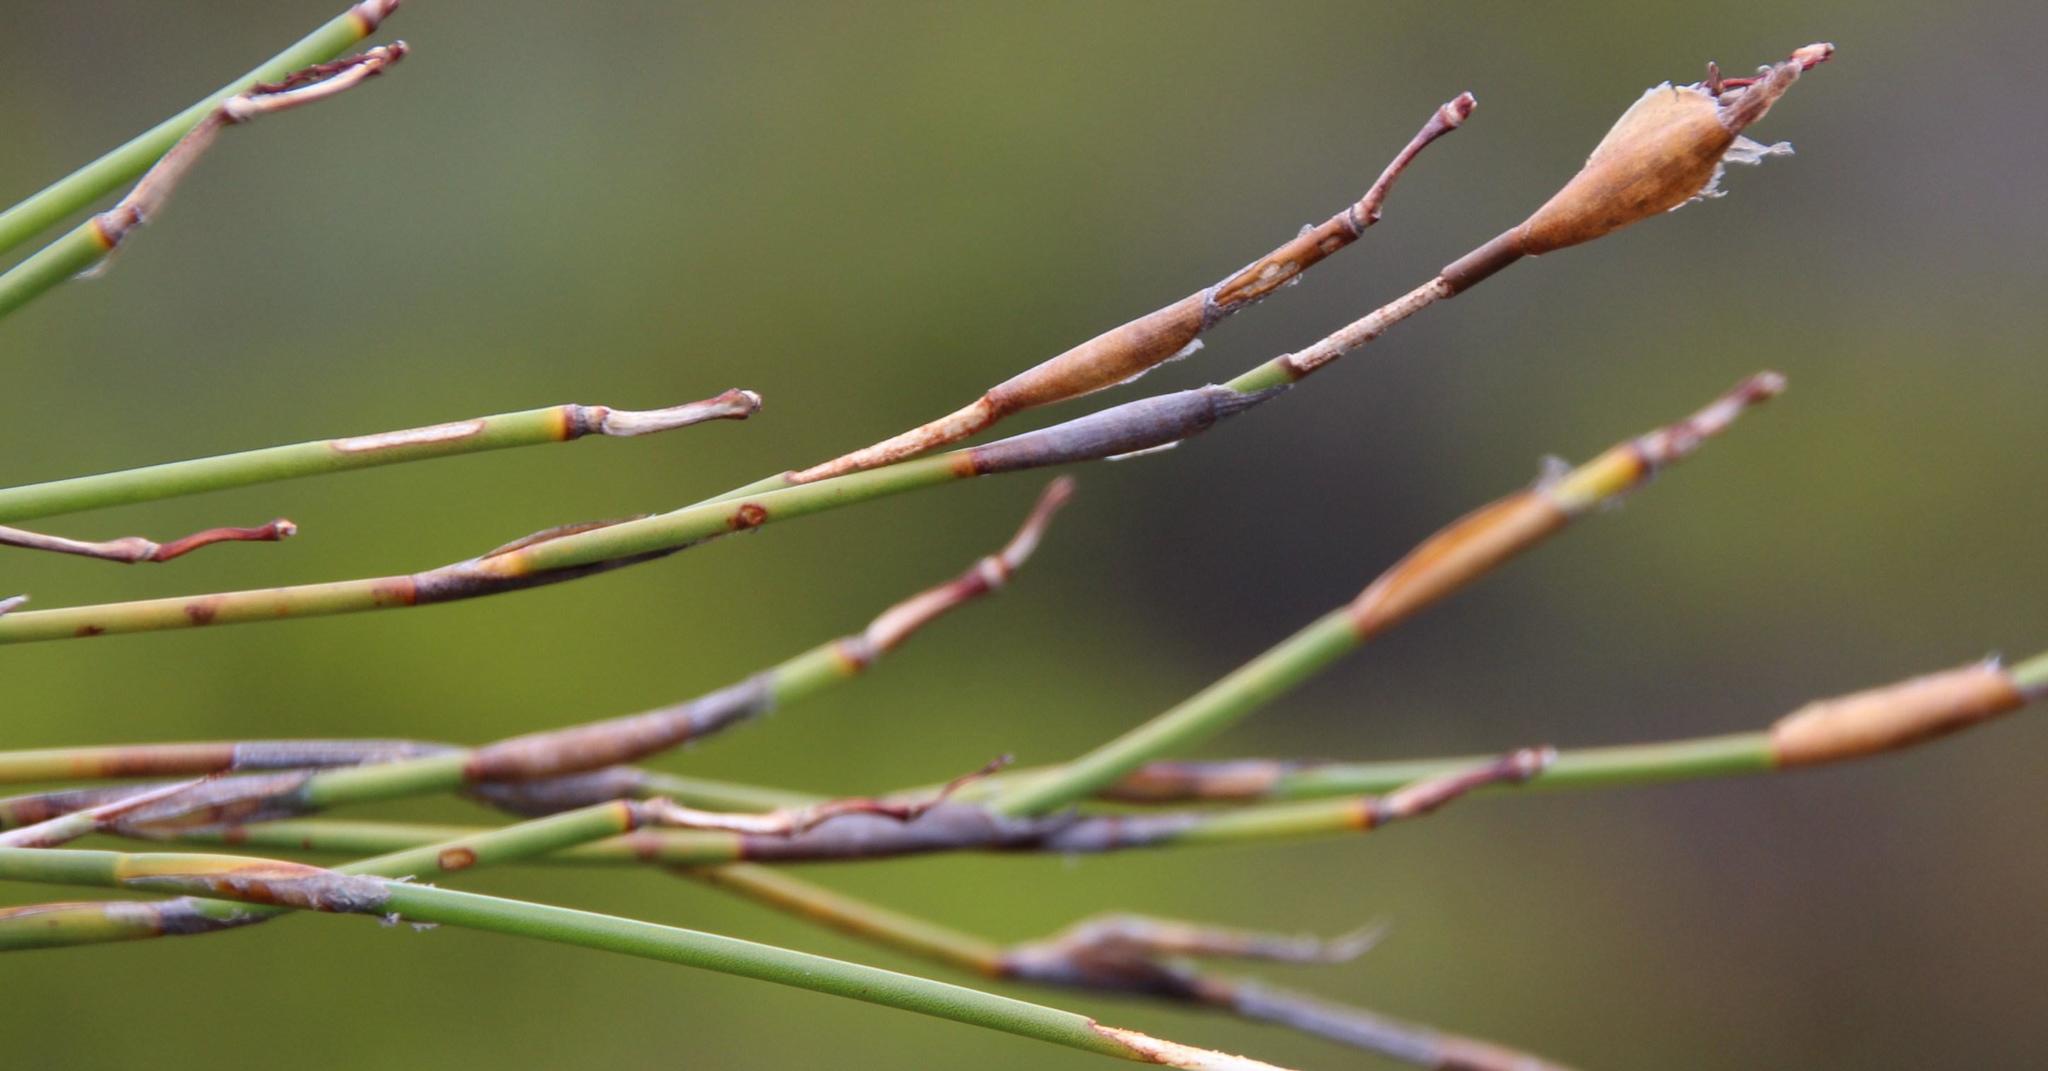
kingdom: Plantae
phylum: Tracheophyta
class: Liliopsida
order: Poales
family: Restionaceae
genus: Willdenowia
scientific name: Willdenowia teres
